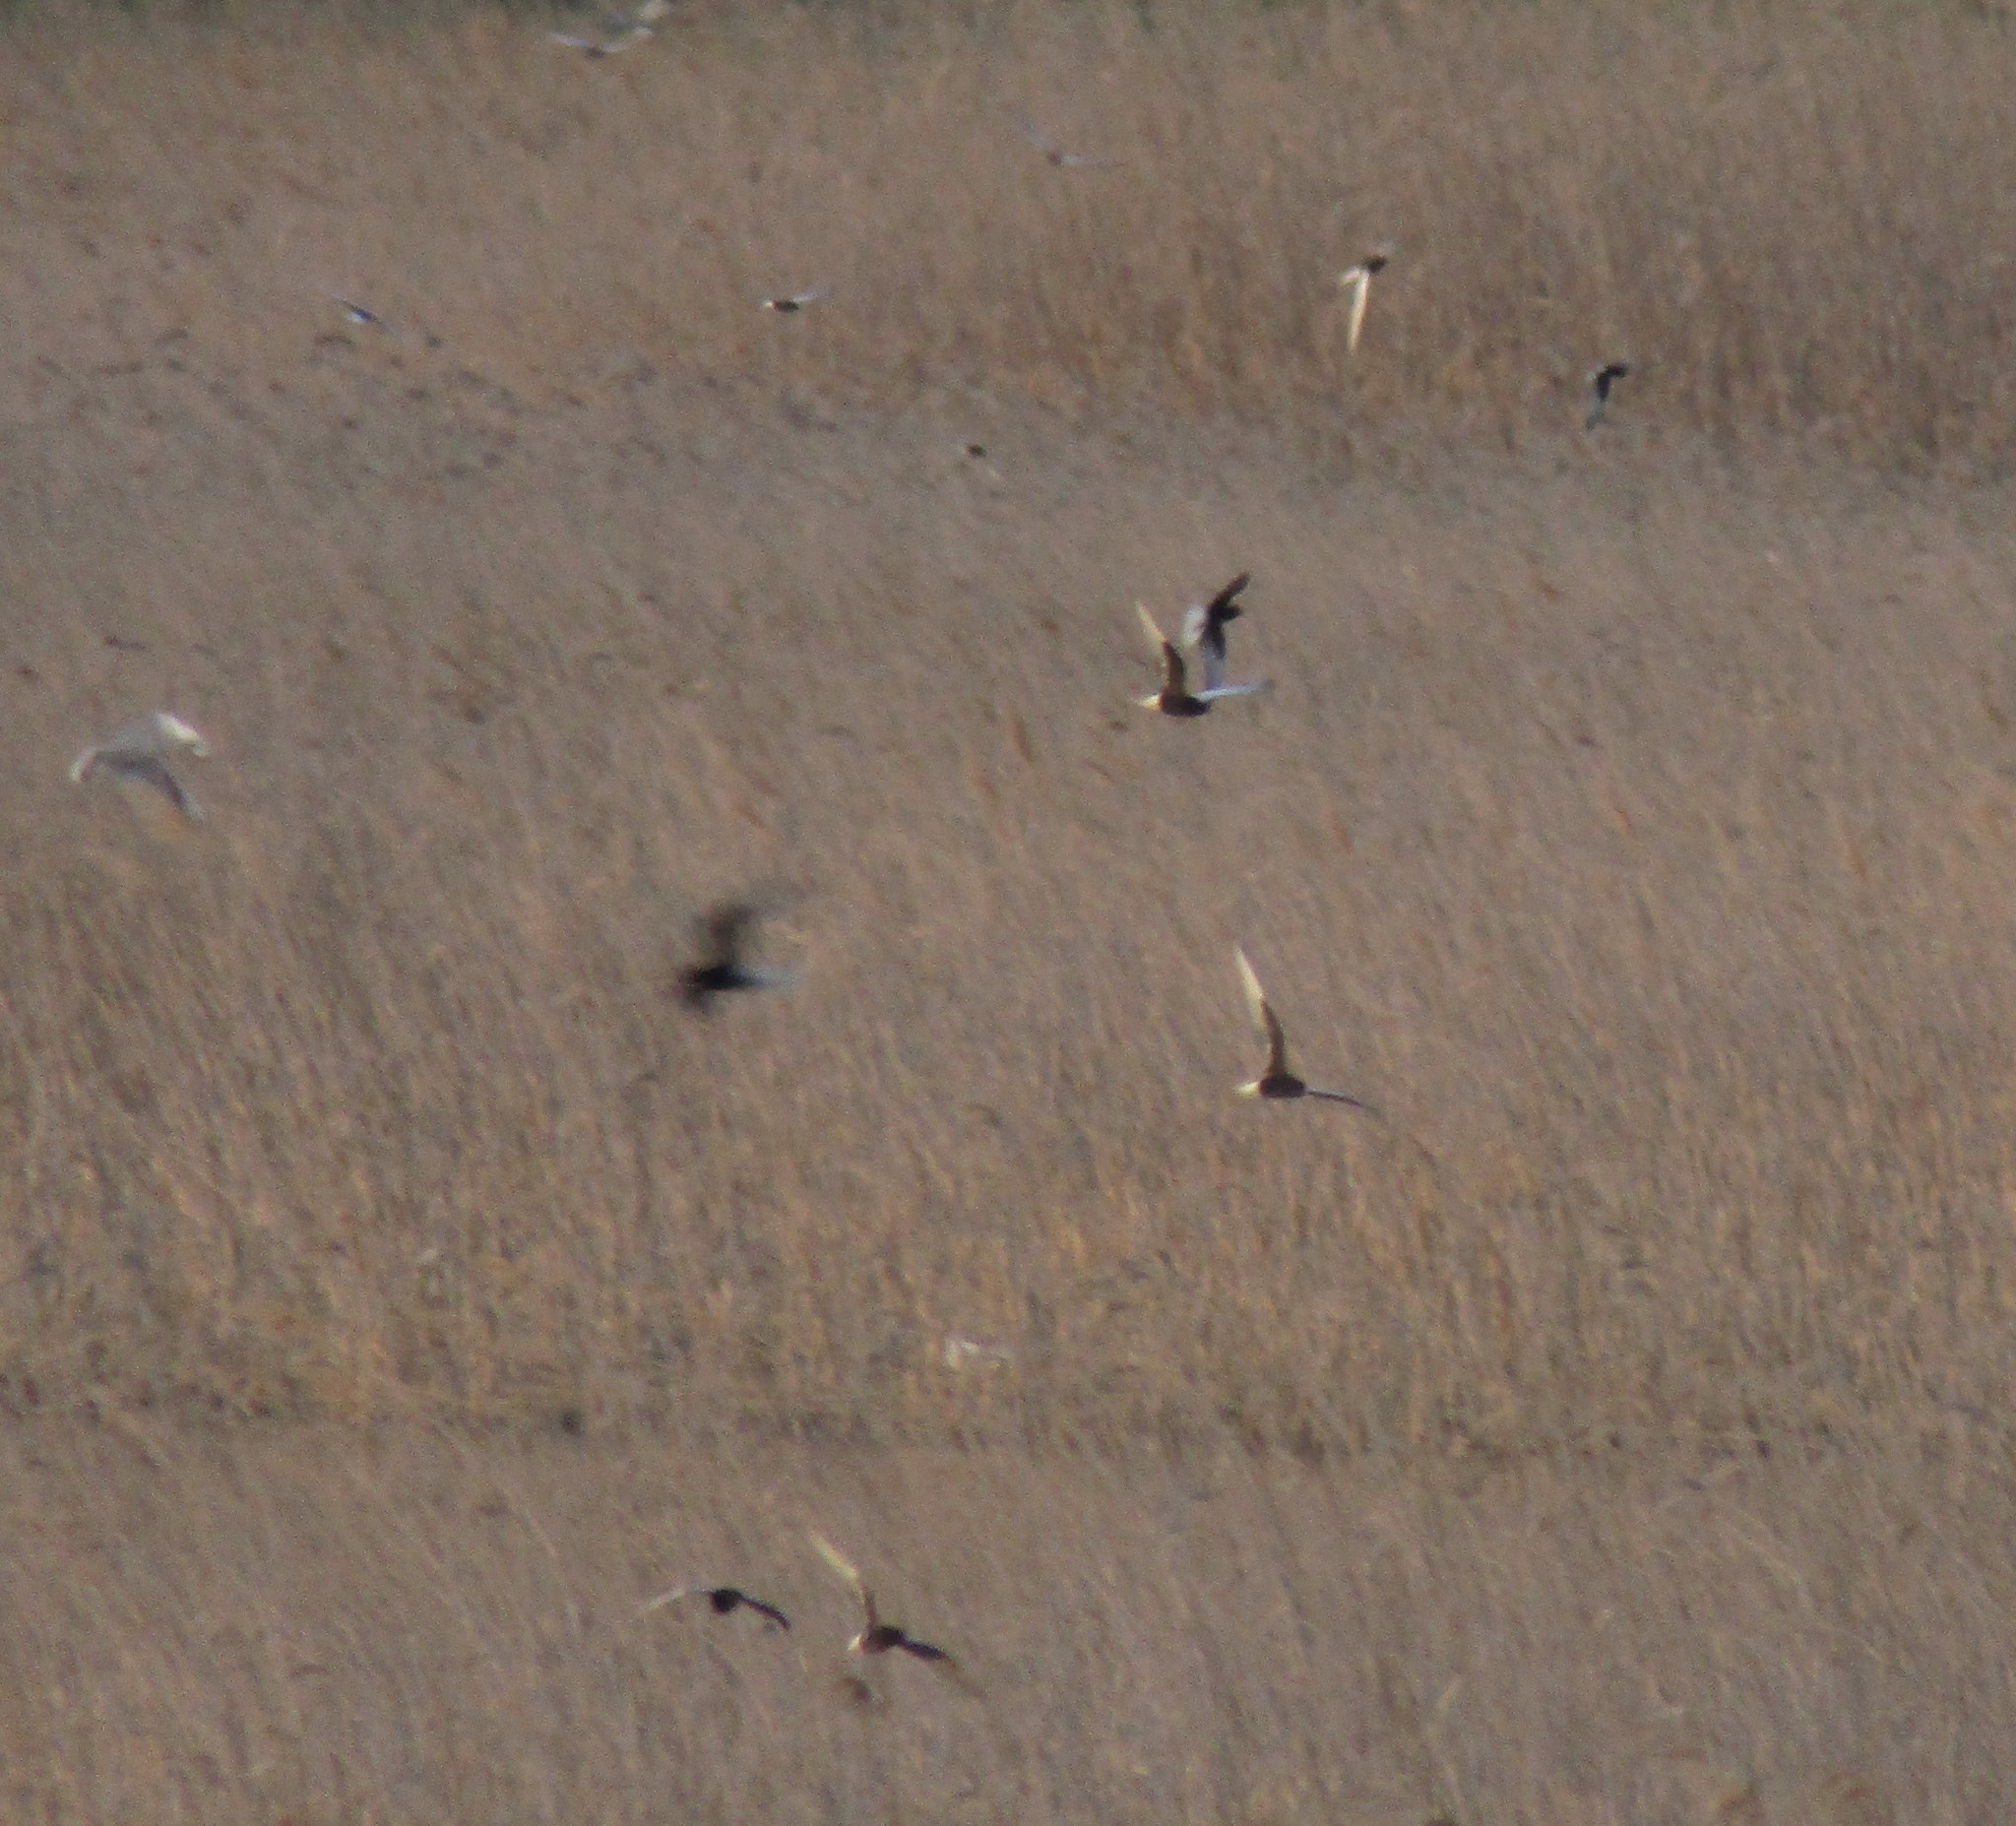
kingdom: Animalia
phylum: Chordata
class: Aves
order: Charadriiformes
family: Laridae
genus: Chlidonias
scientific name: Chlidonias leucopterus
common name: White-winged tern
